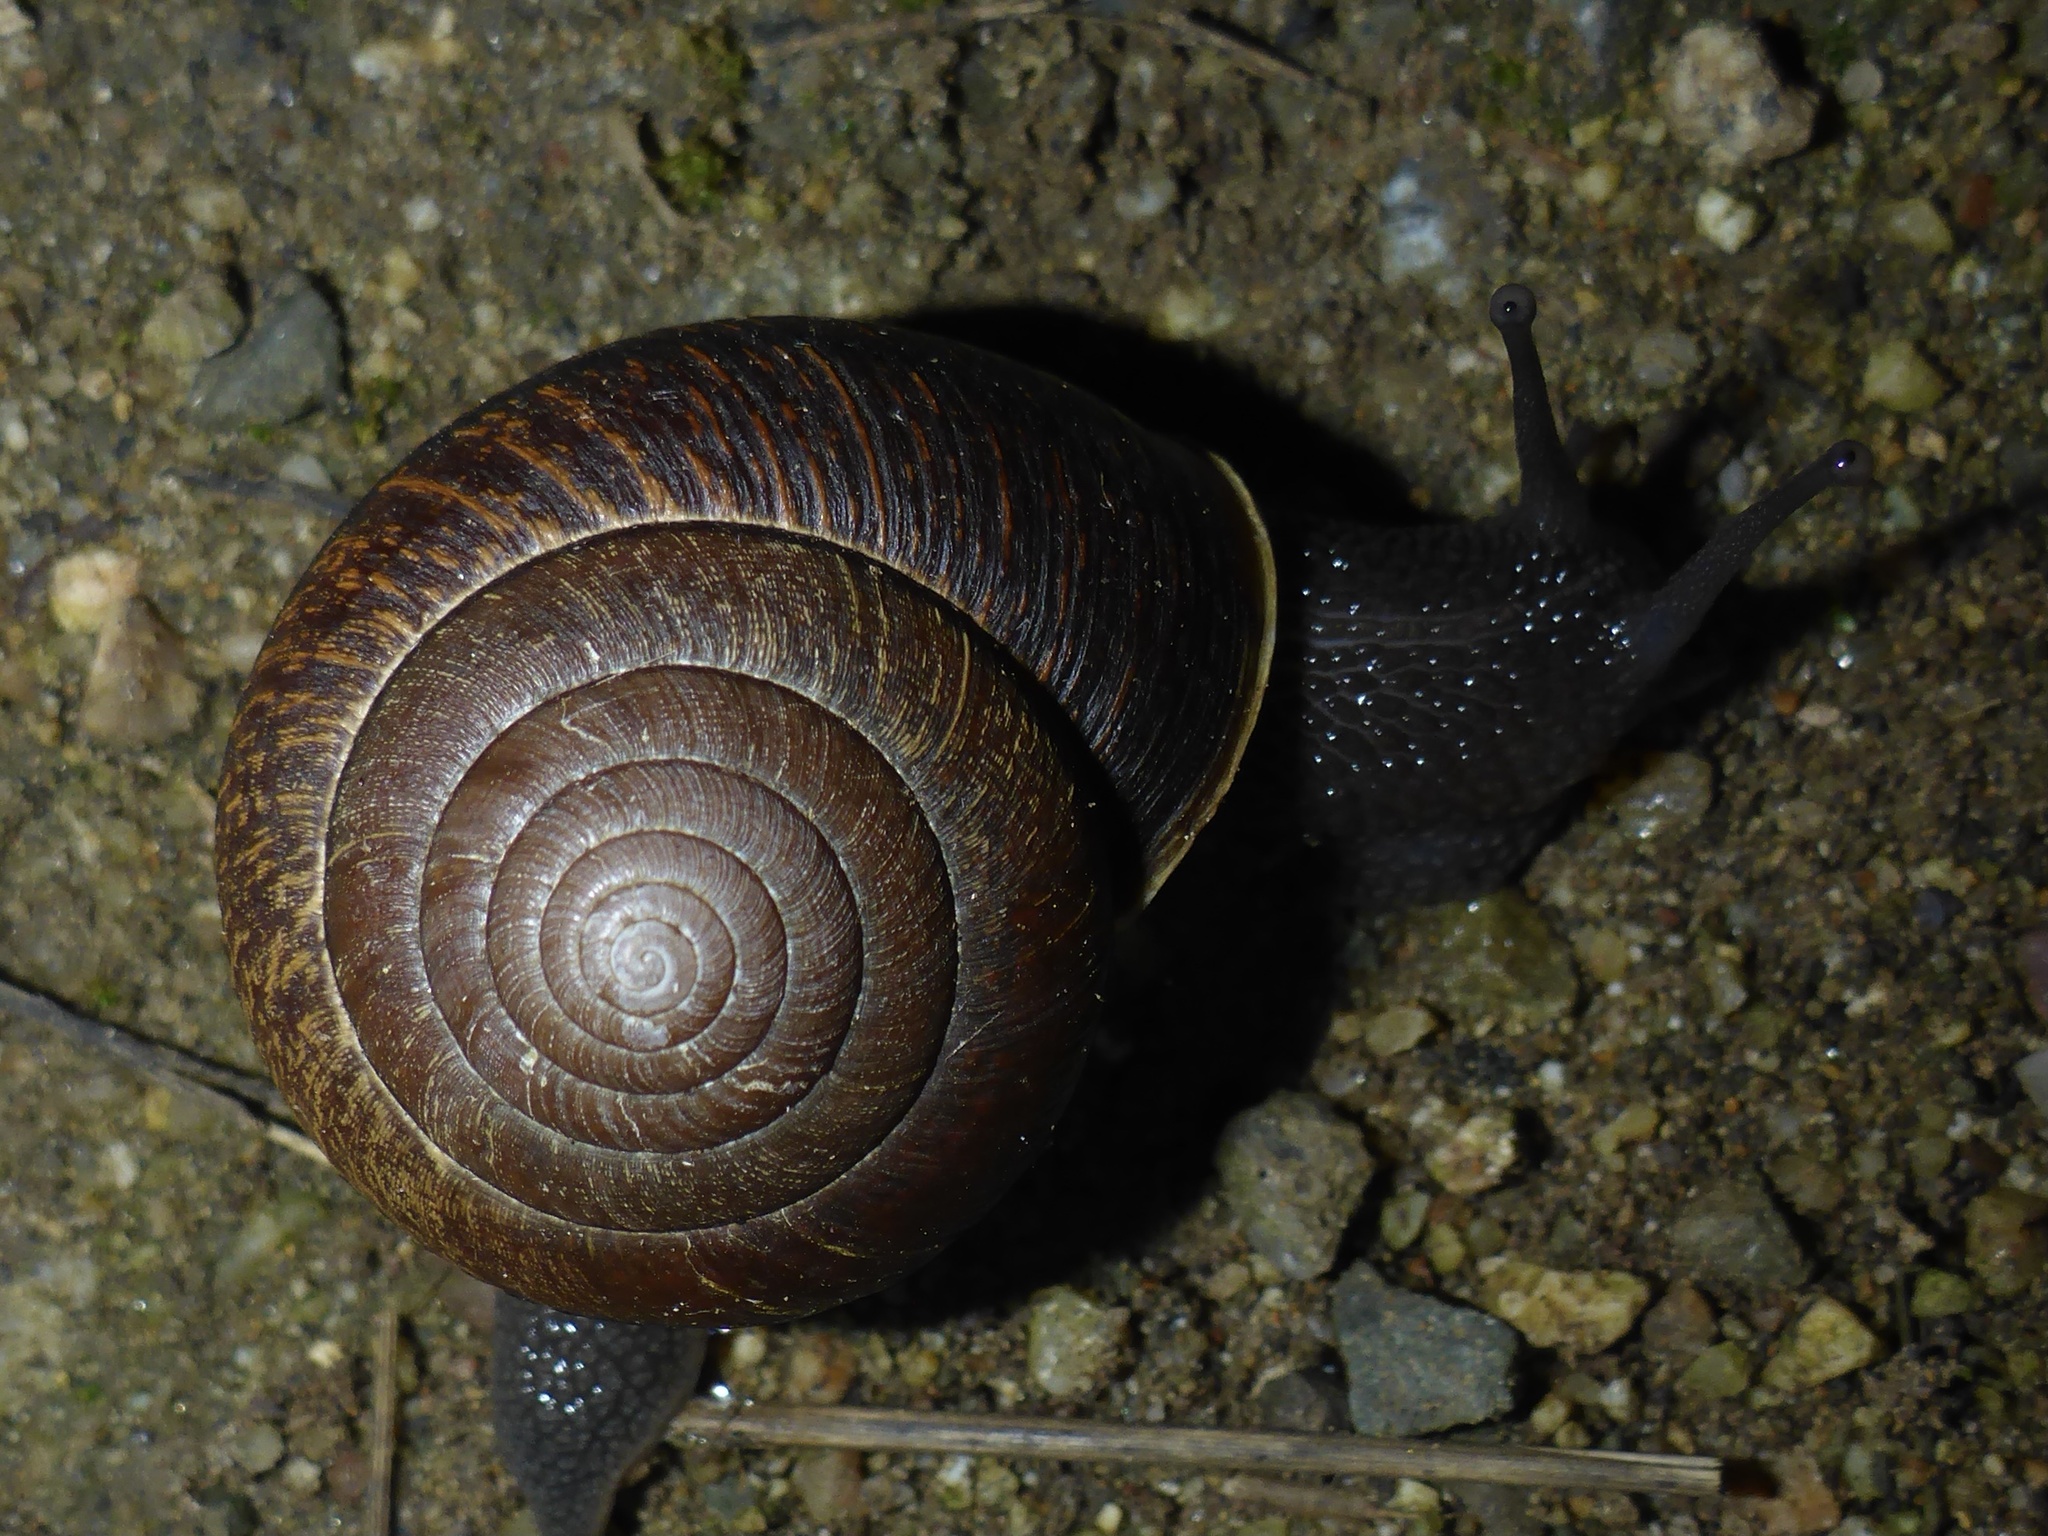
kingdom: Animalia
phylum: Mollusca
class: Gastropoda
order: Stylommatophora
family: Xanthonychidae
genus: Helminthoglypta
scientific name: Helminthoglypta arrosa
